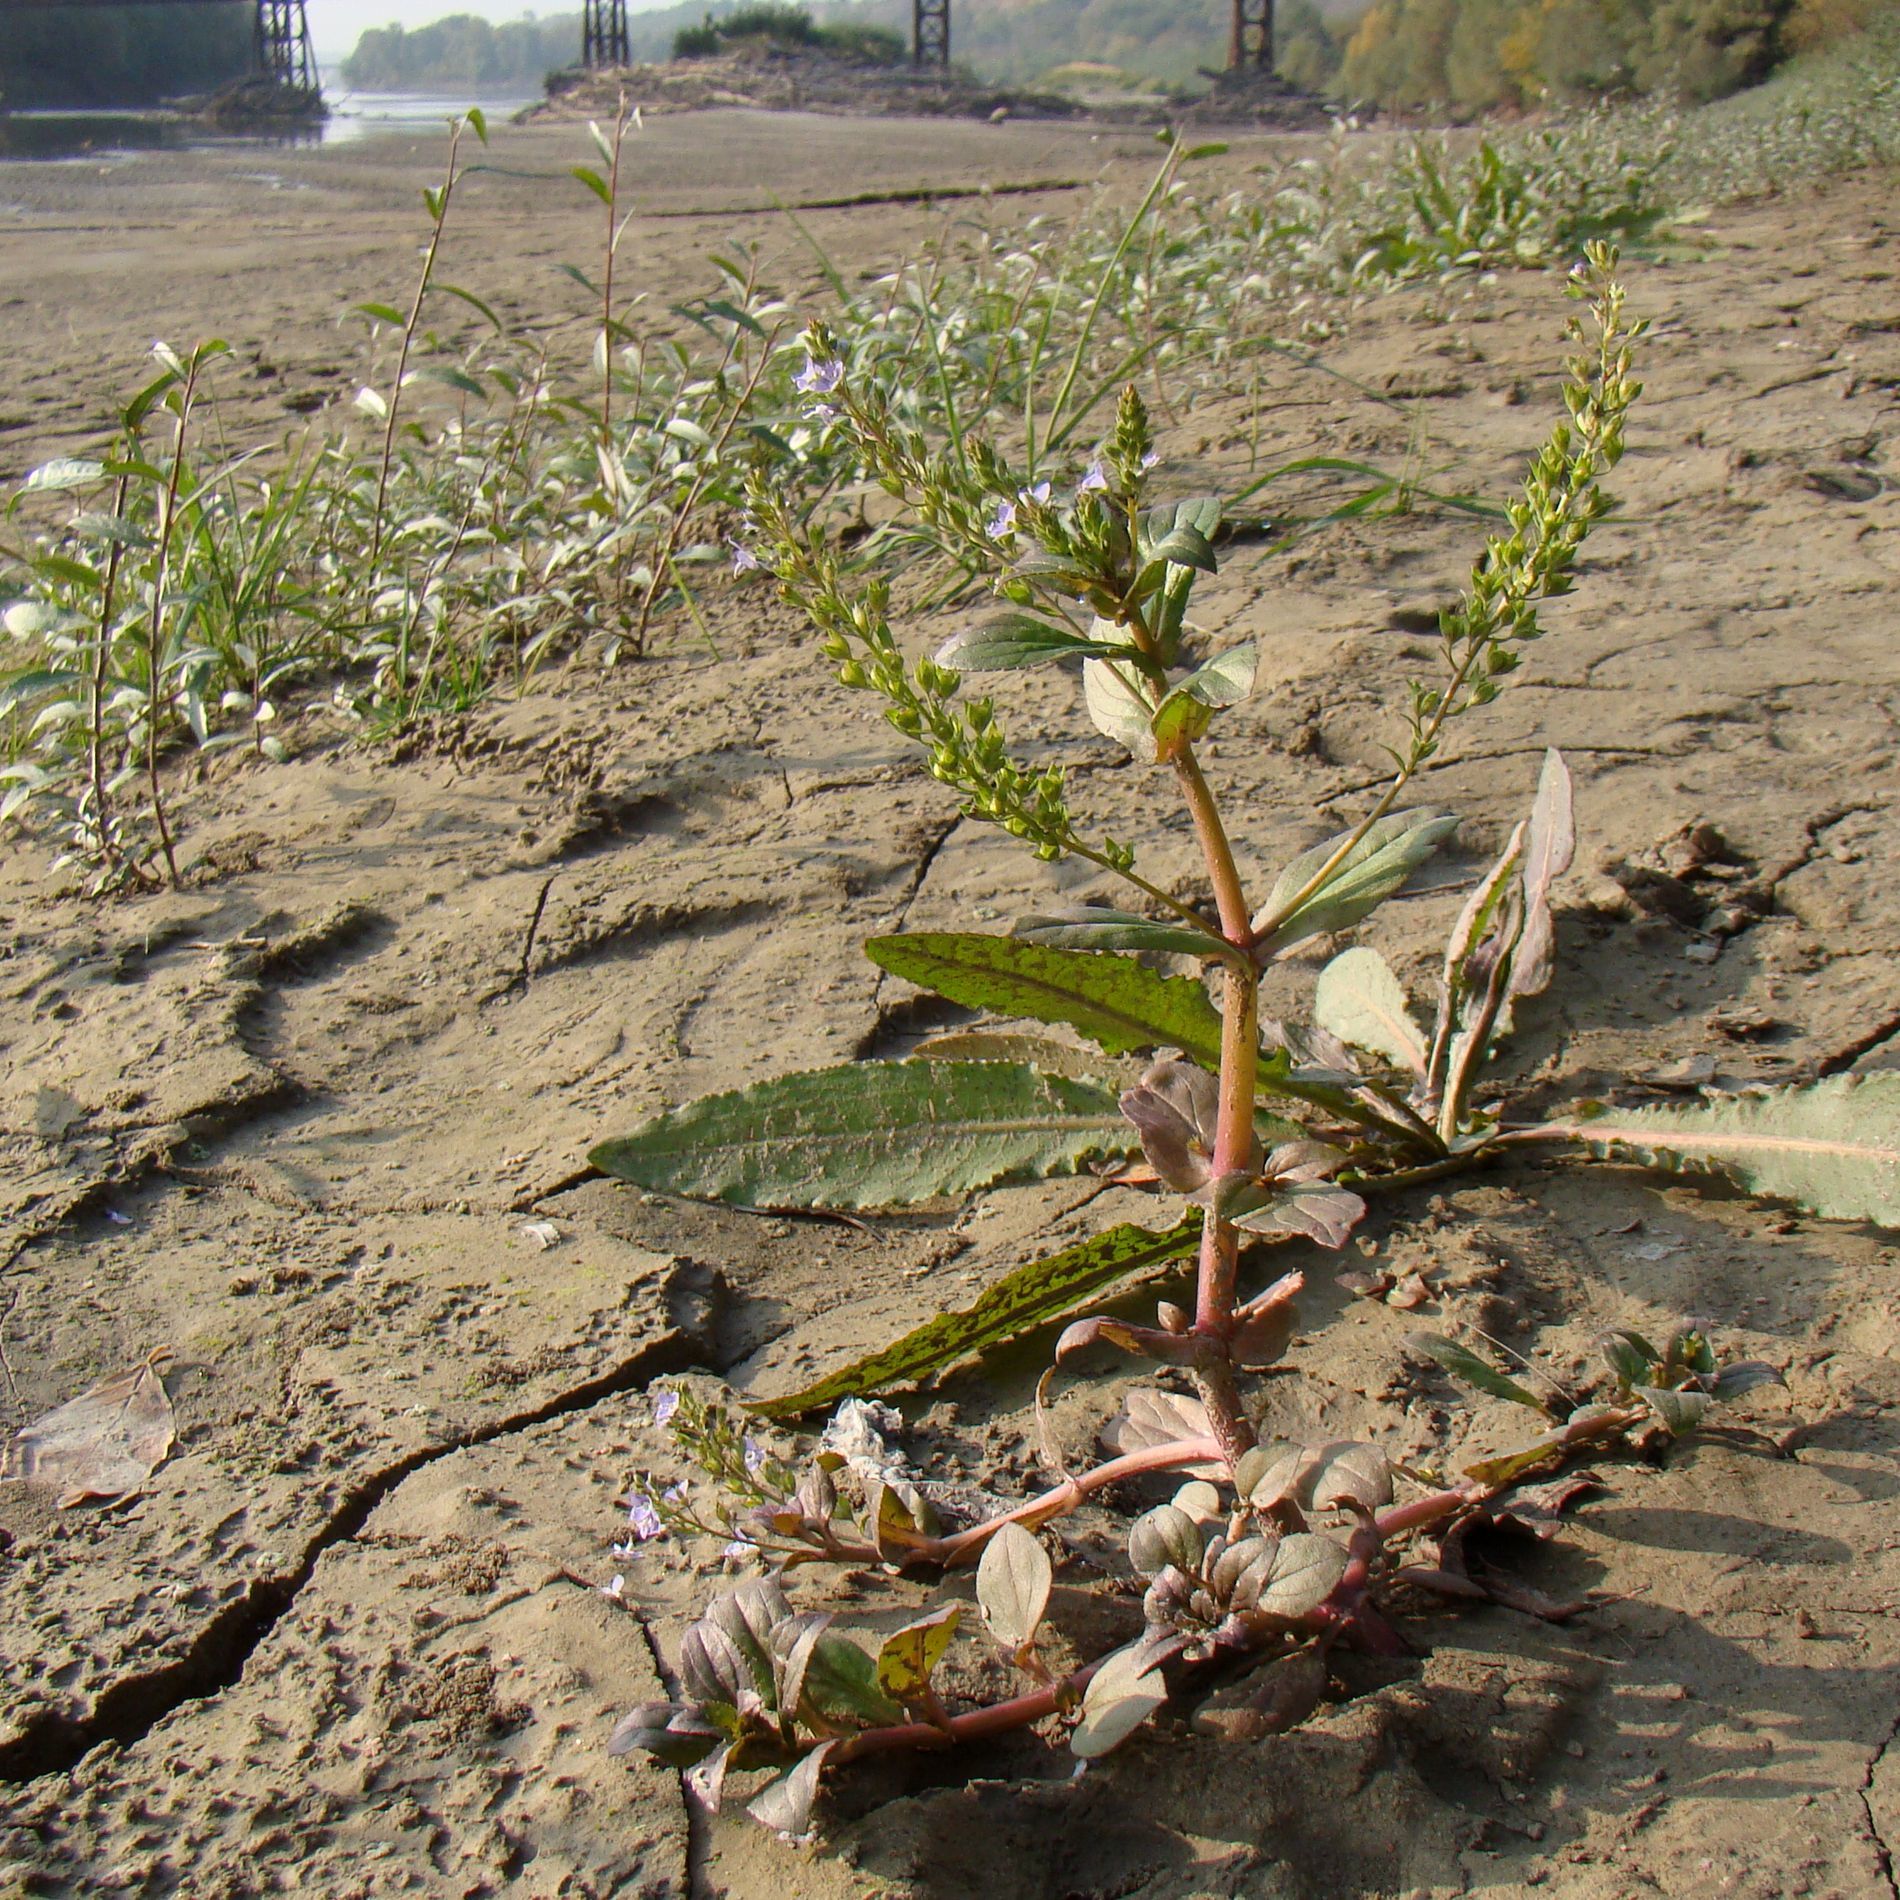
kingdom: Plantae
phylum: Tracheophyta
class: Magnoliopsida
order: Lamiales
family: Plantaginaceae
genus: Veronica
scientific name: Veronica anagallis-aquatica
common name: Water speedwell
